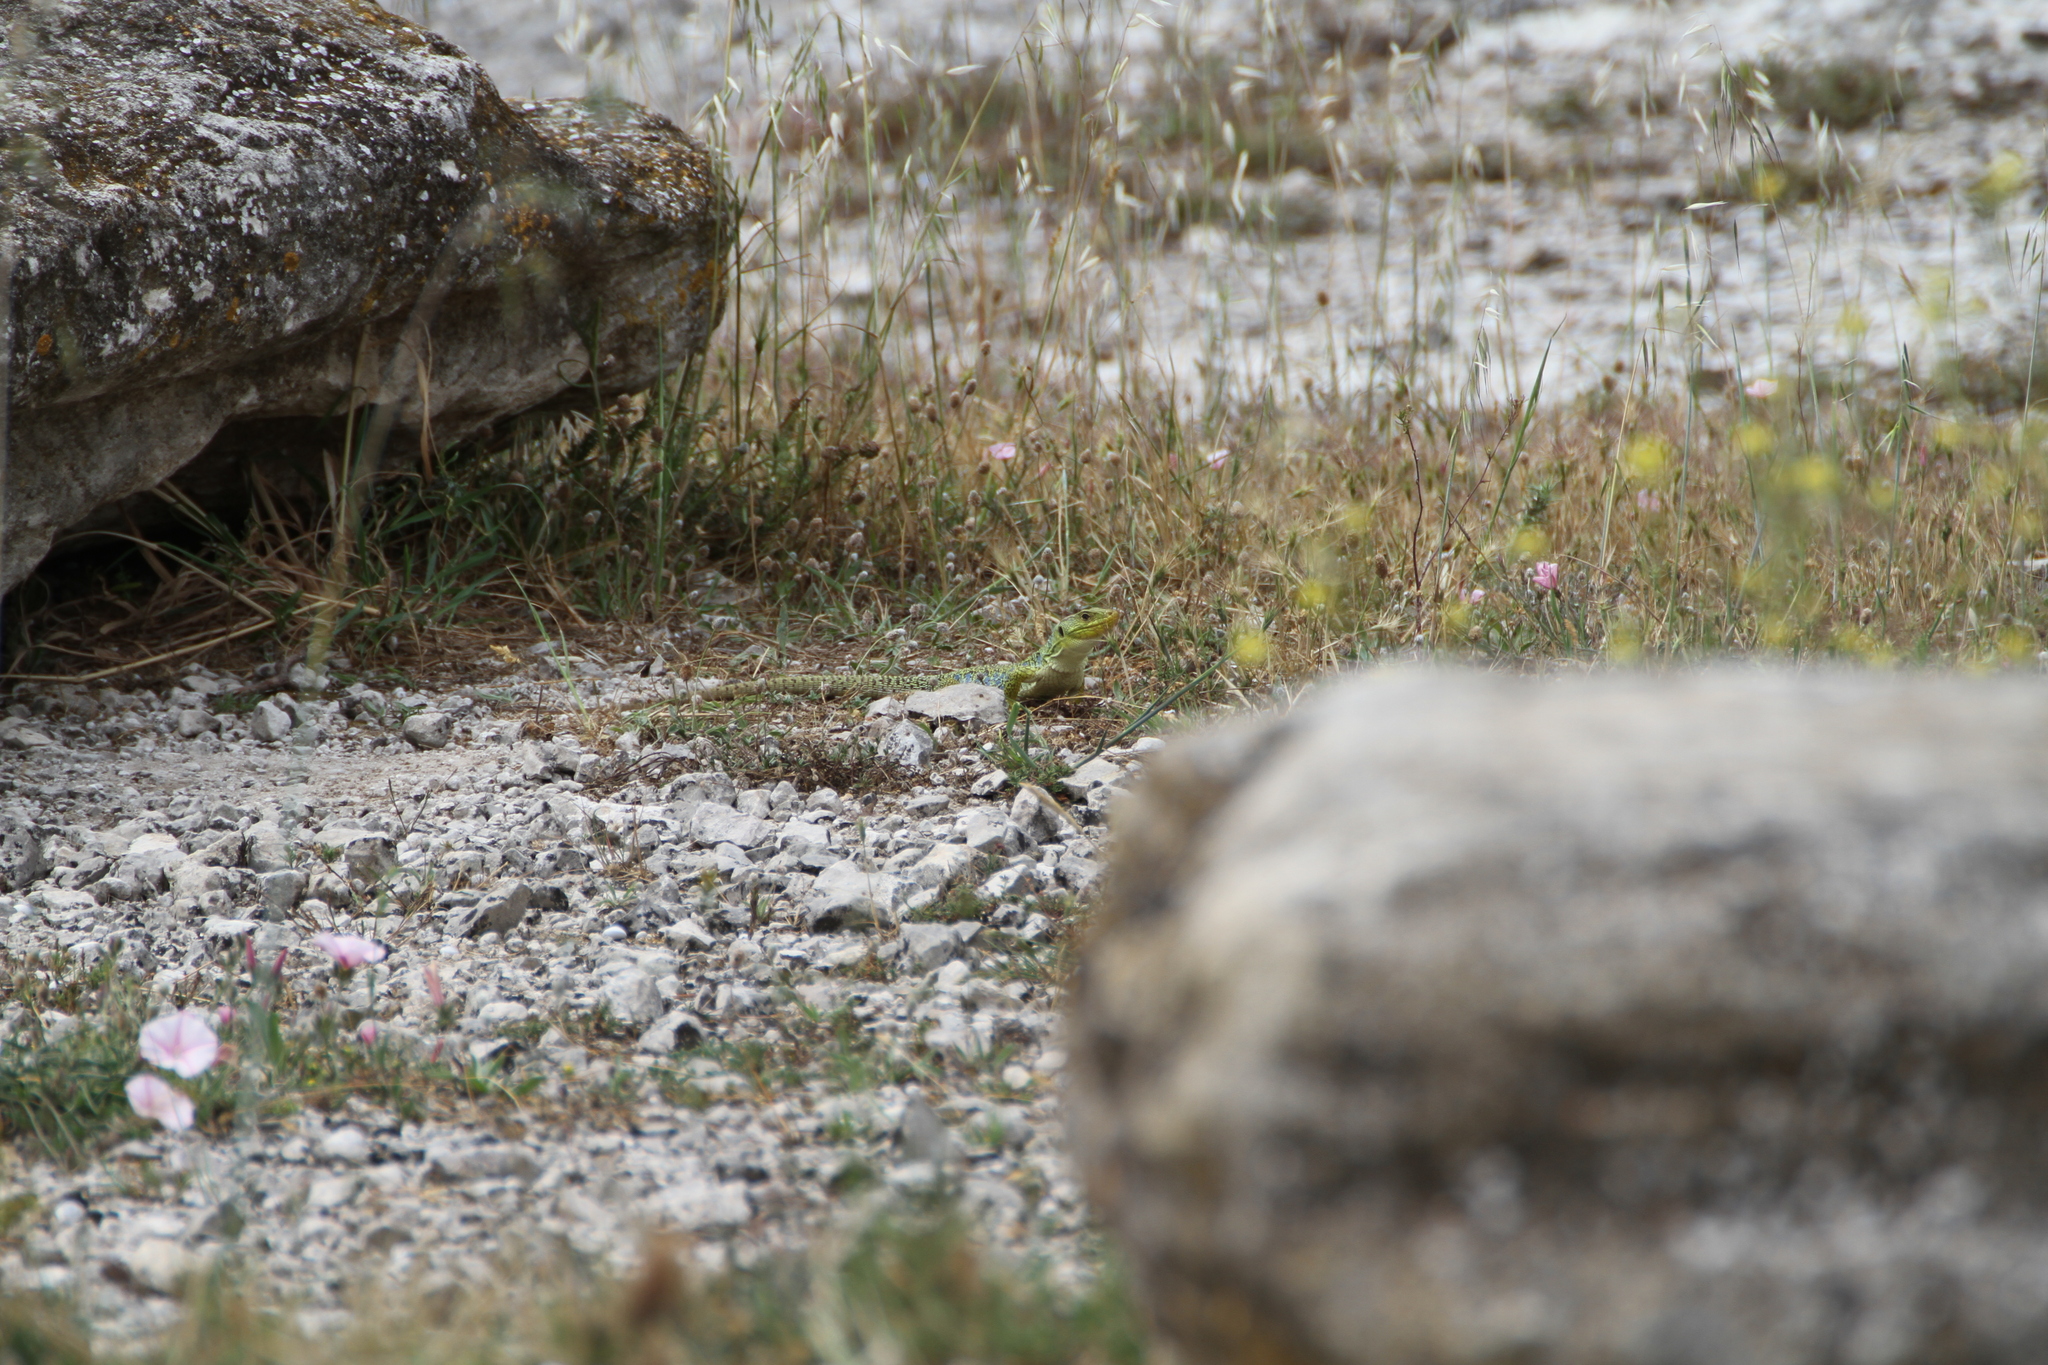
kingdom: Animalia
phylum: Chordata
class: Squamata
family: Lacertidae
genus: Timon
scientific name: Timon lepidus
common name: Ocellated lizard
